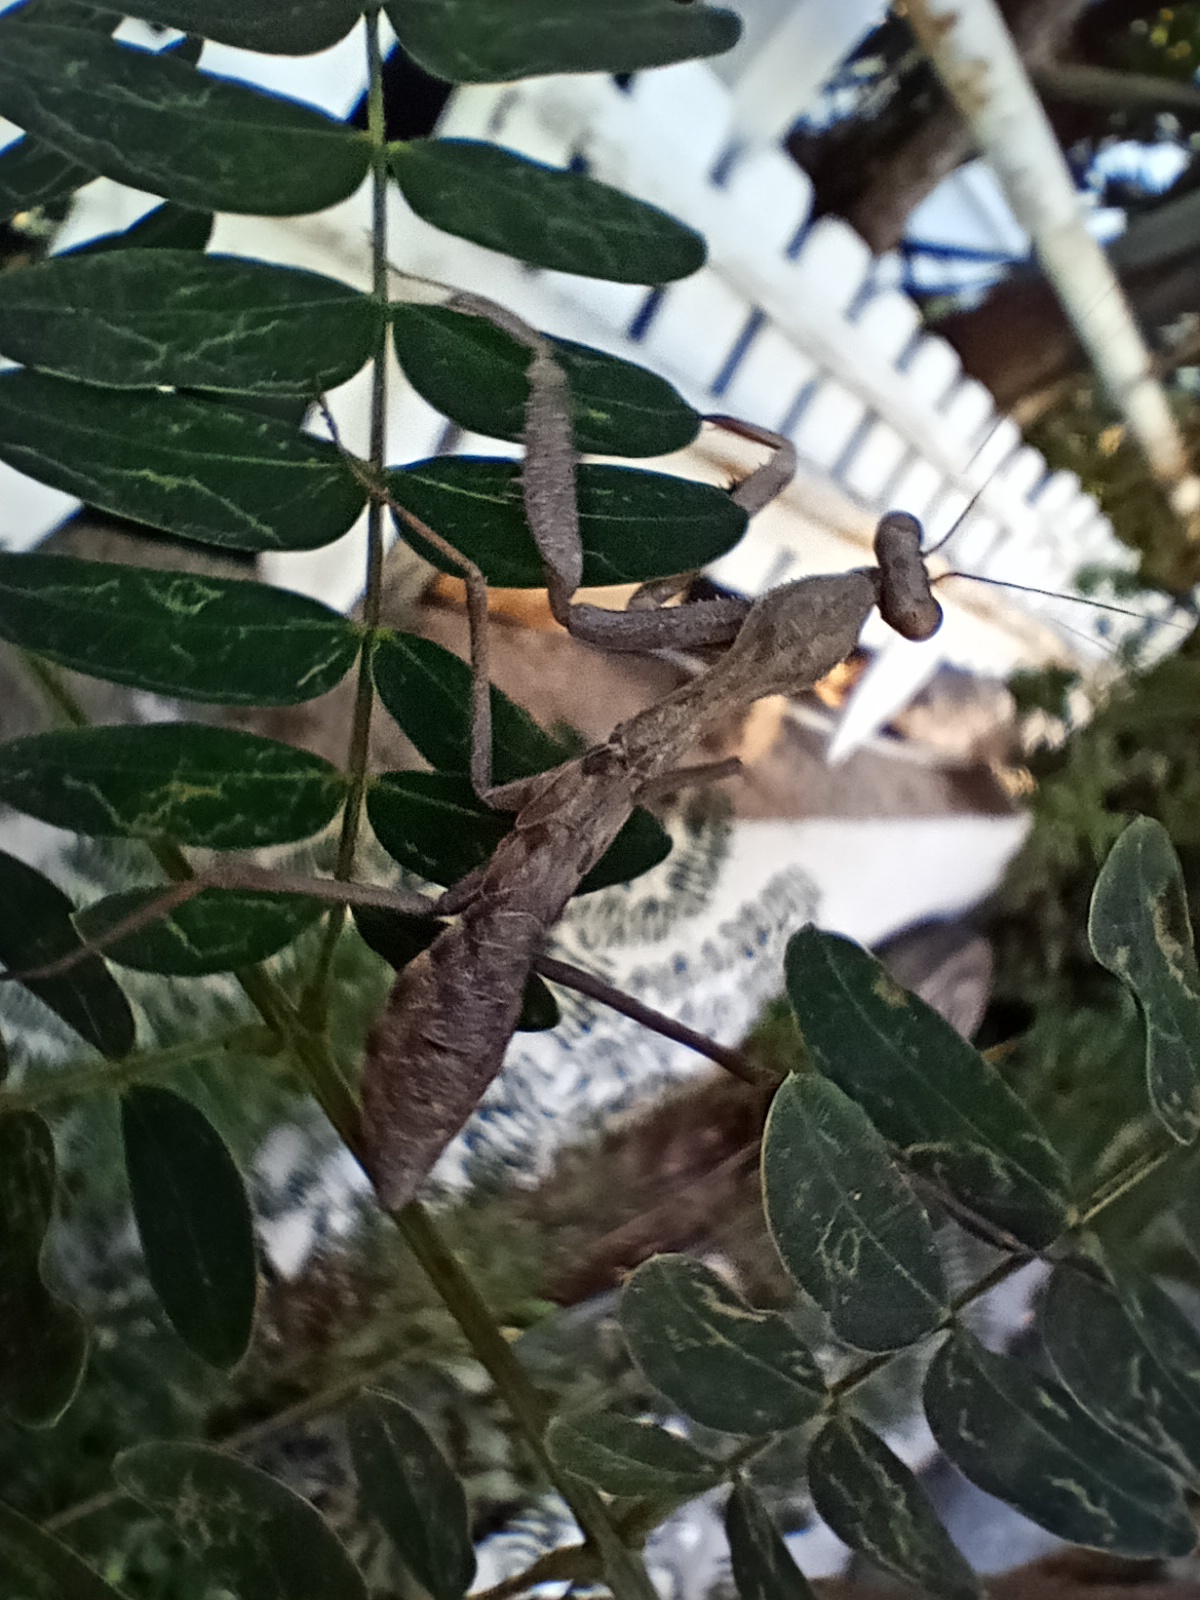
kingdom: Animalia
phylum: Arthropoda
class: Insecta
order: Mantodea
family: Mantidae
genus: Sphodromantis
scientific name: Sphodromantis viridis
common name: Giant african mantis
